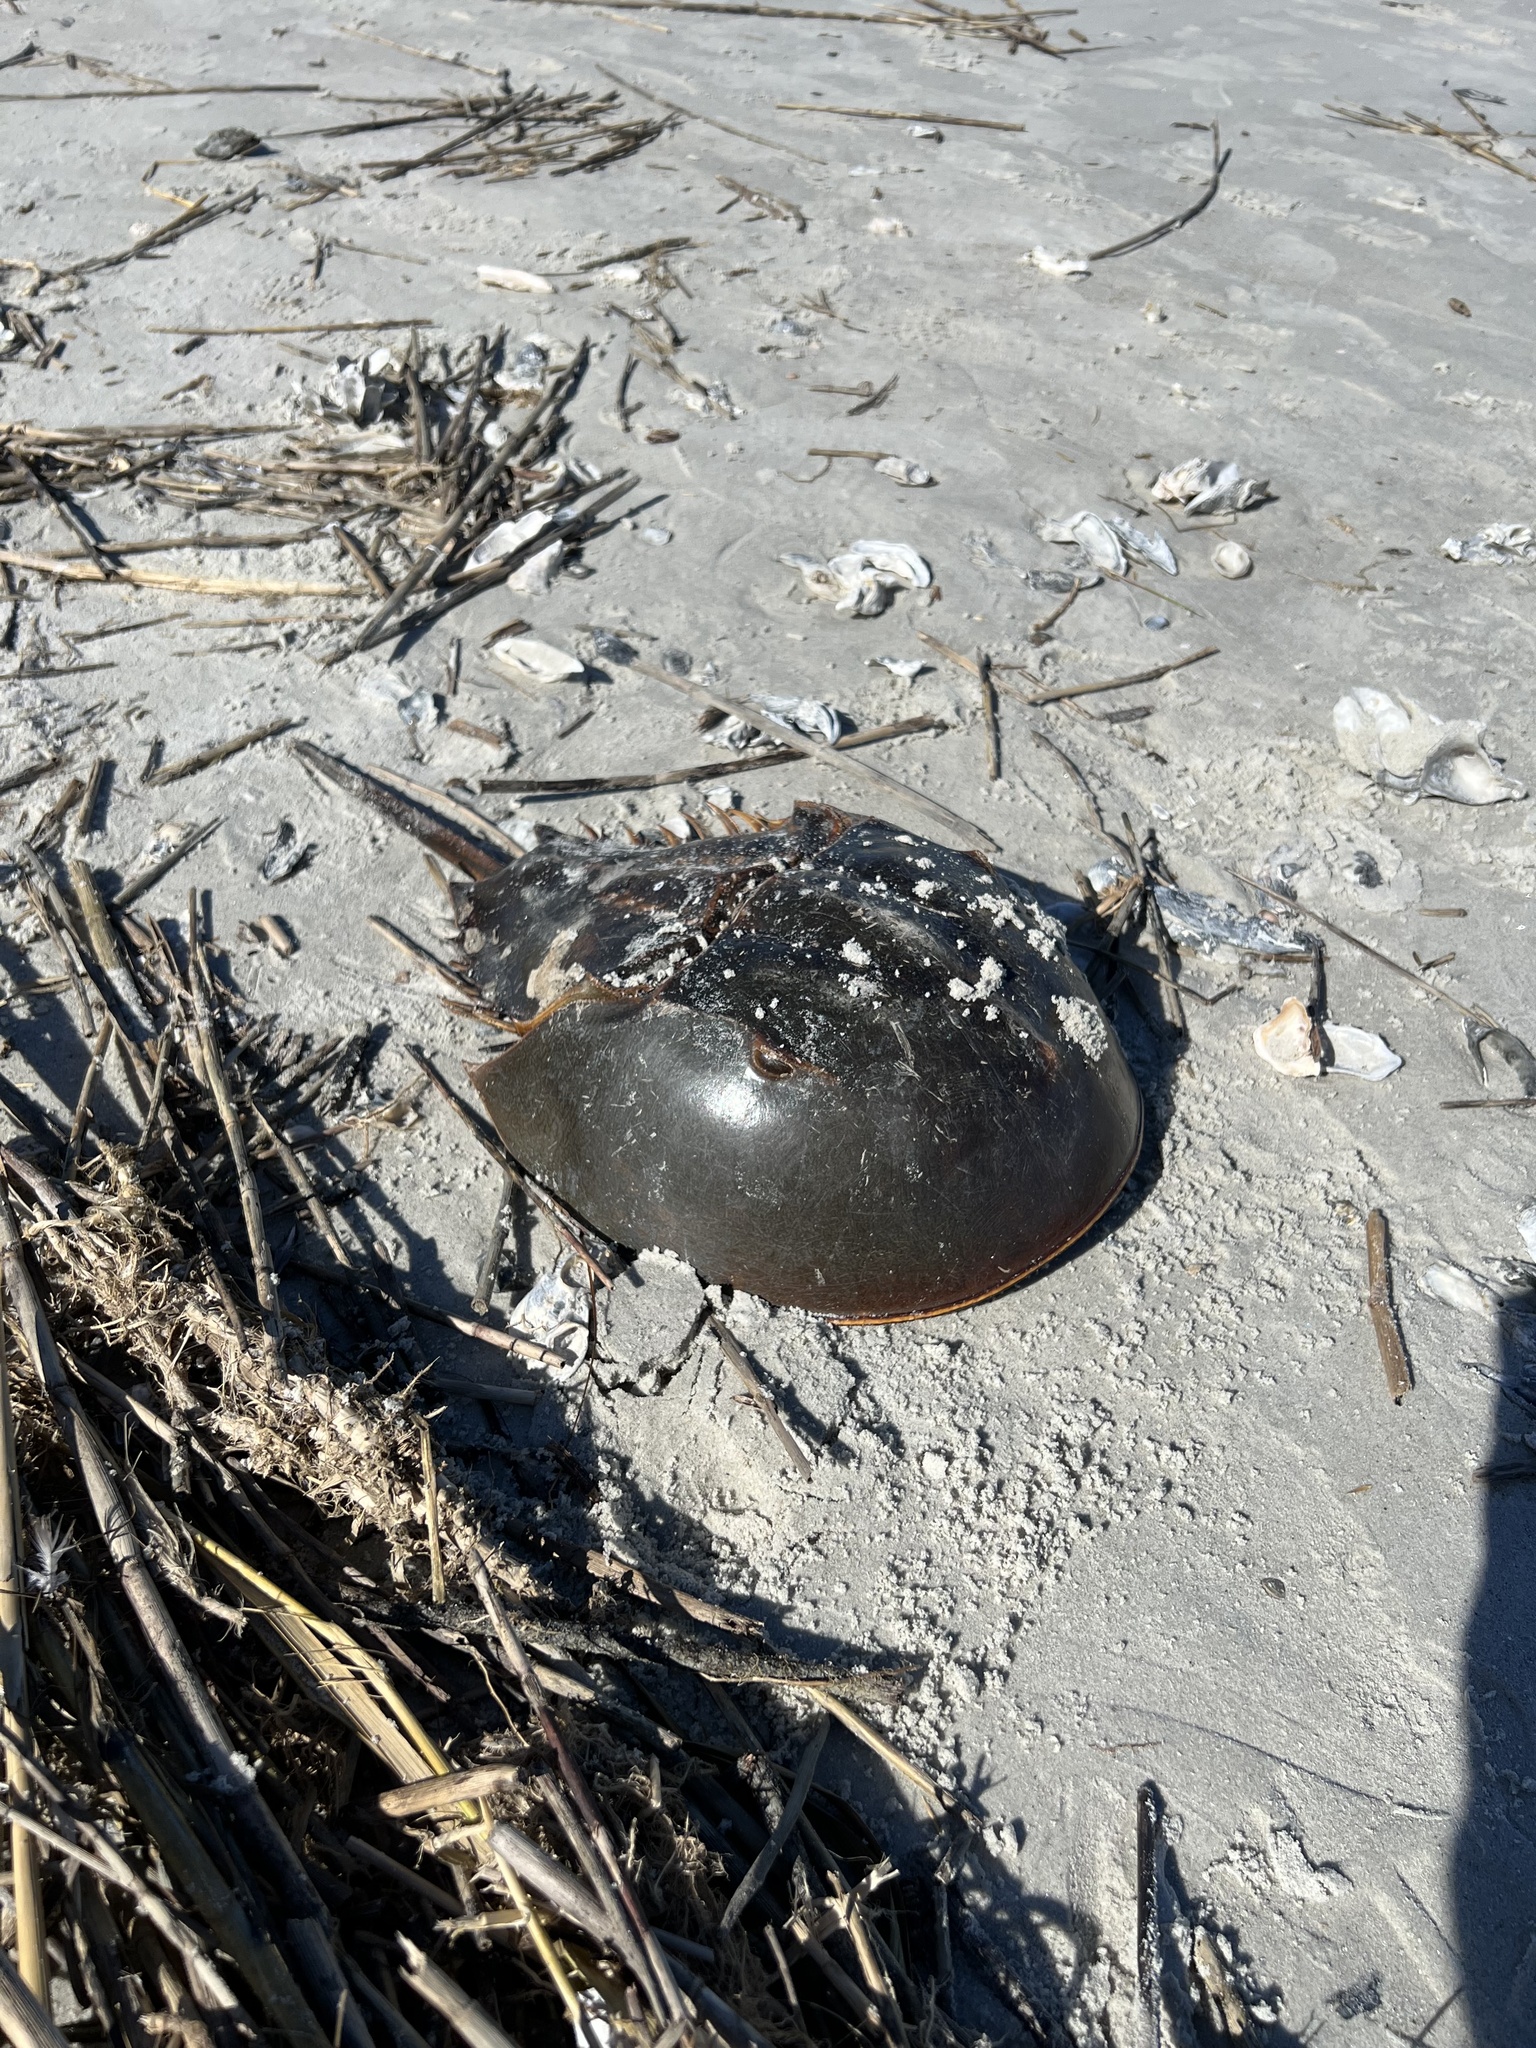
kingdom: Animalia
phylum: Arthropoda
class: Merostomata
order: Xiphosurida
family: Limulidae
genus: Limulus
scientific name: Limulus polyphemus
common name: Horseshoe crab
